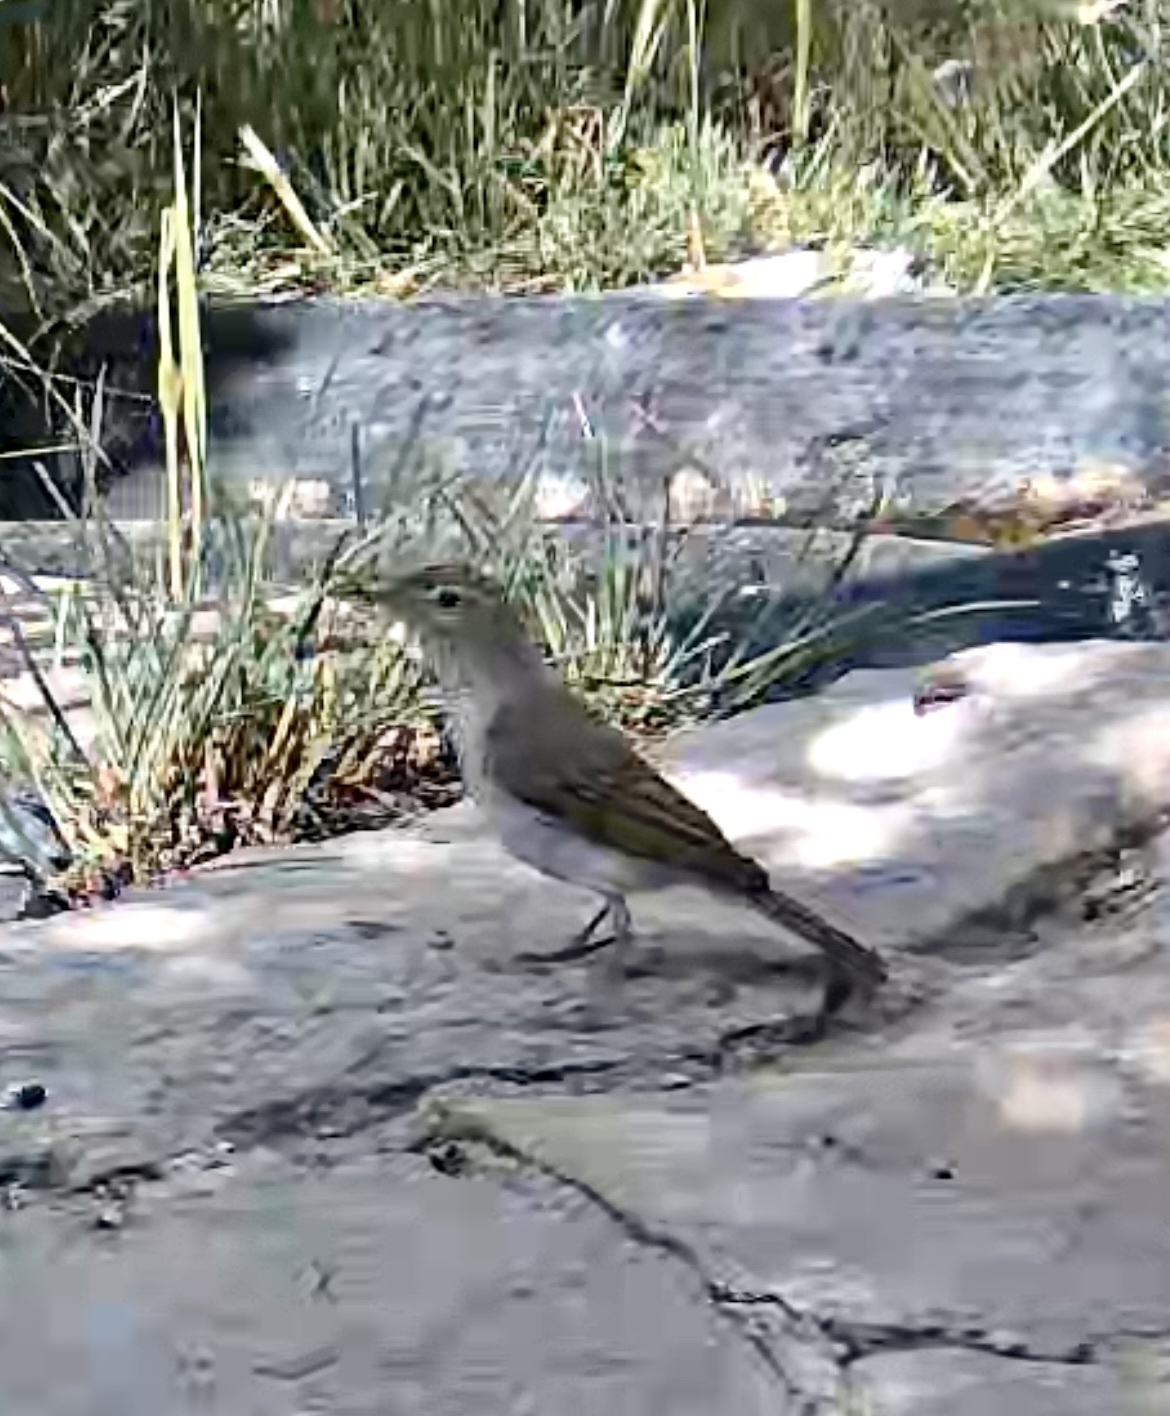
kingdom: Animalia
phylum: Chordata
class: Aves
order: Passeriformes
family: Phylloscopidae
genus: Phylloscopus
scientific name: Phylloscopus bonelli
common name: Western bonelli's warbler
